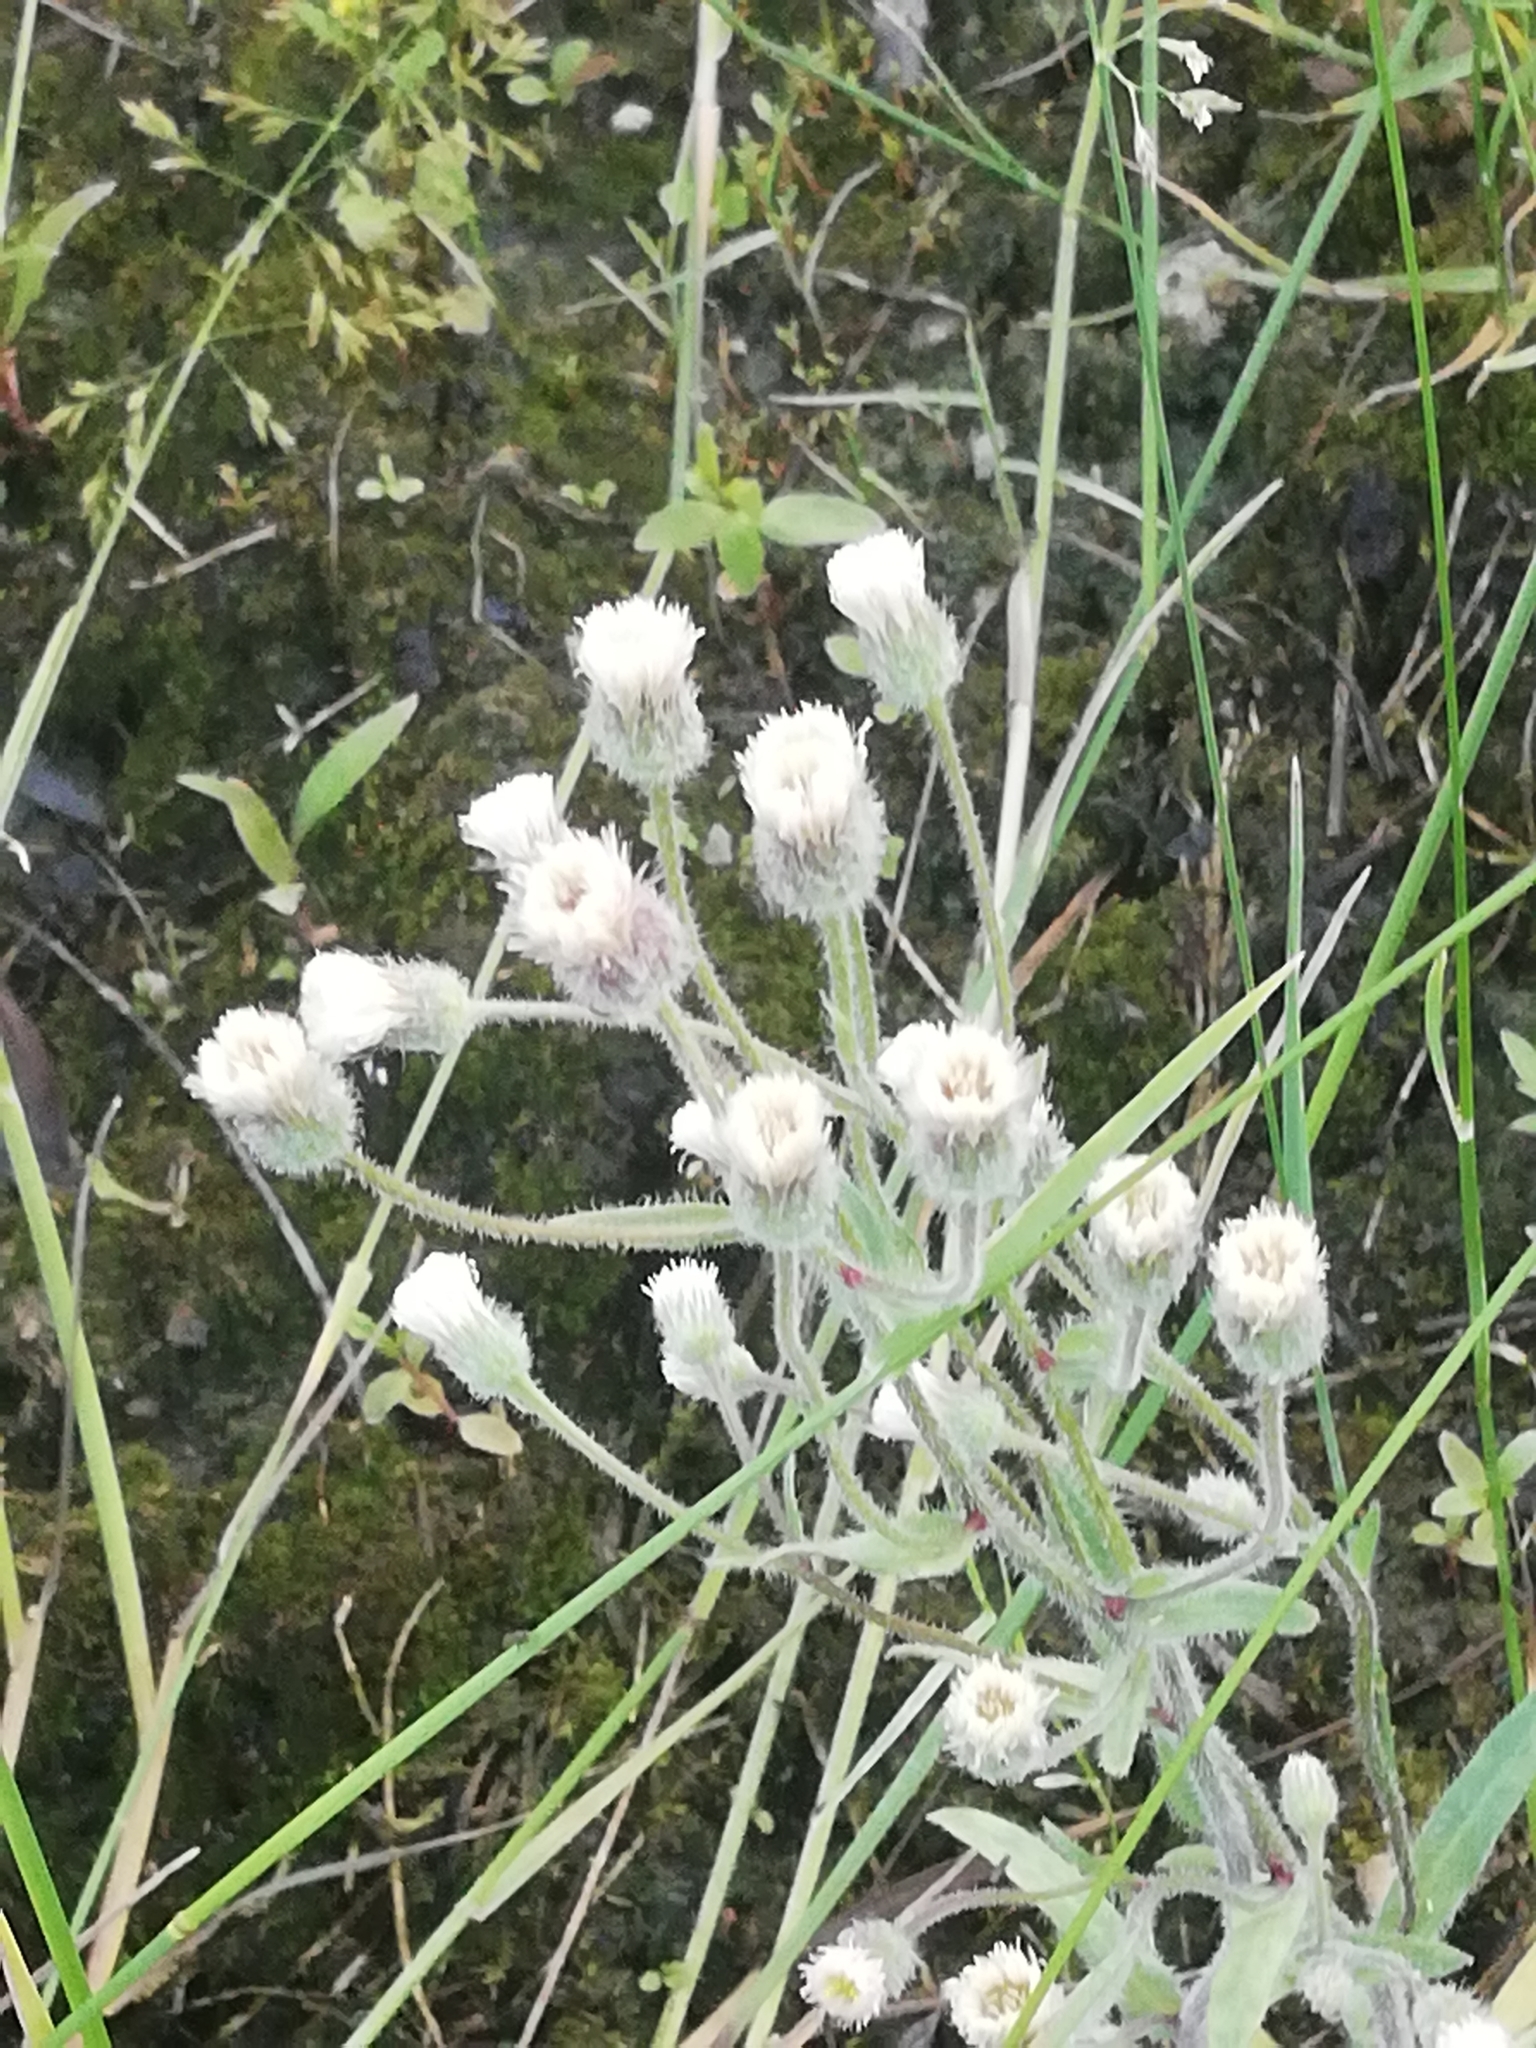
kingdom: Plantae
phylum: Tracheophyta
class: Magnoliopsida
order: Asterales
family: Asteraceae
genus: Erigeron
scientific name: Erigeron acris
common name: Blue fleabane
